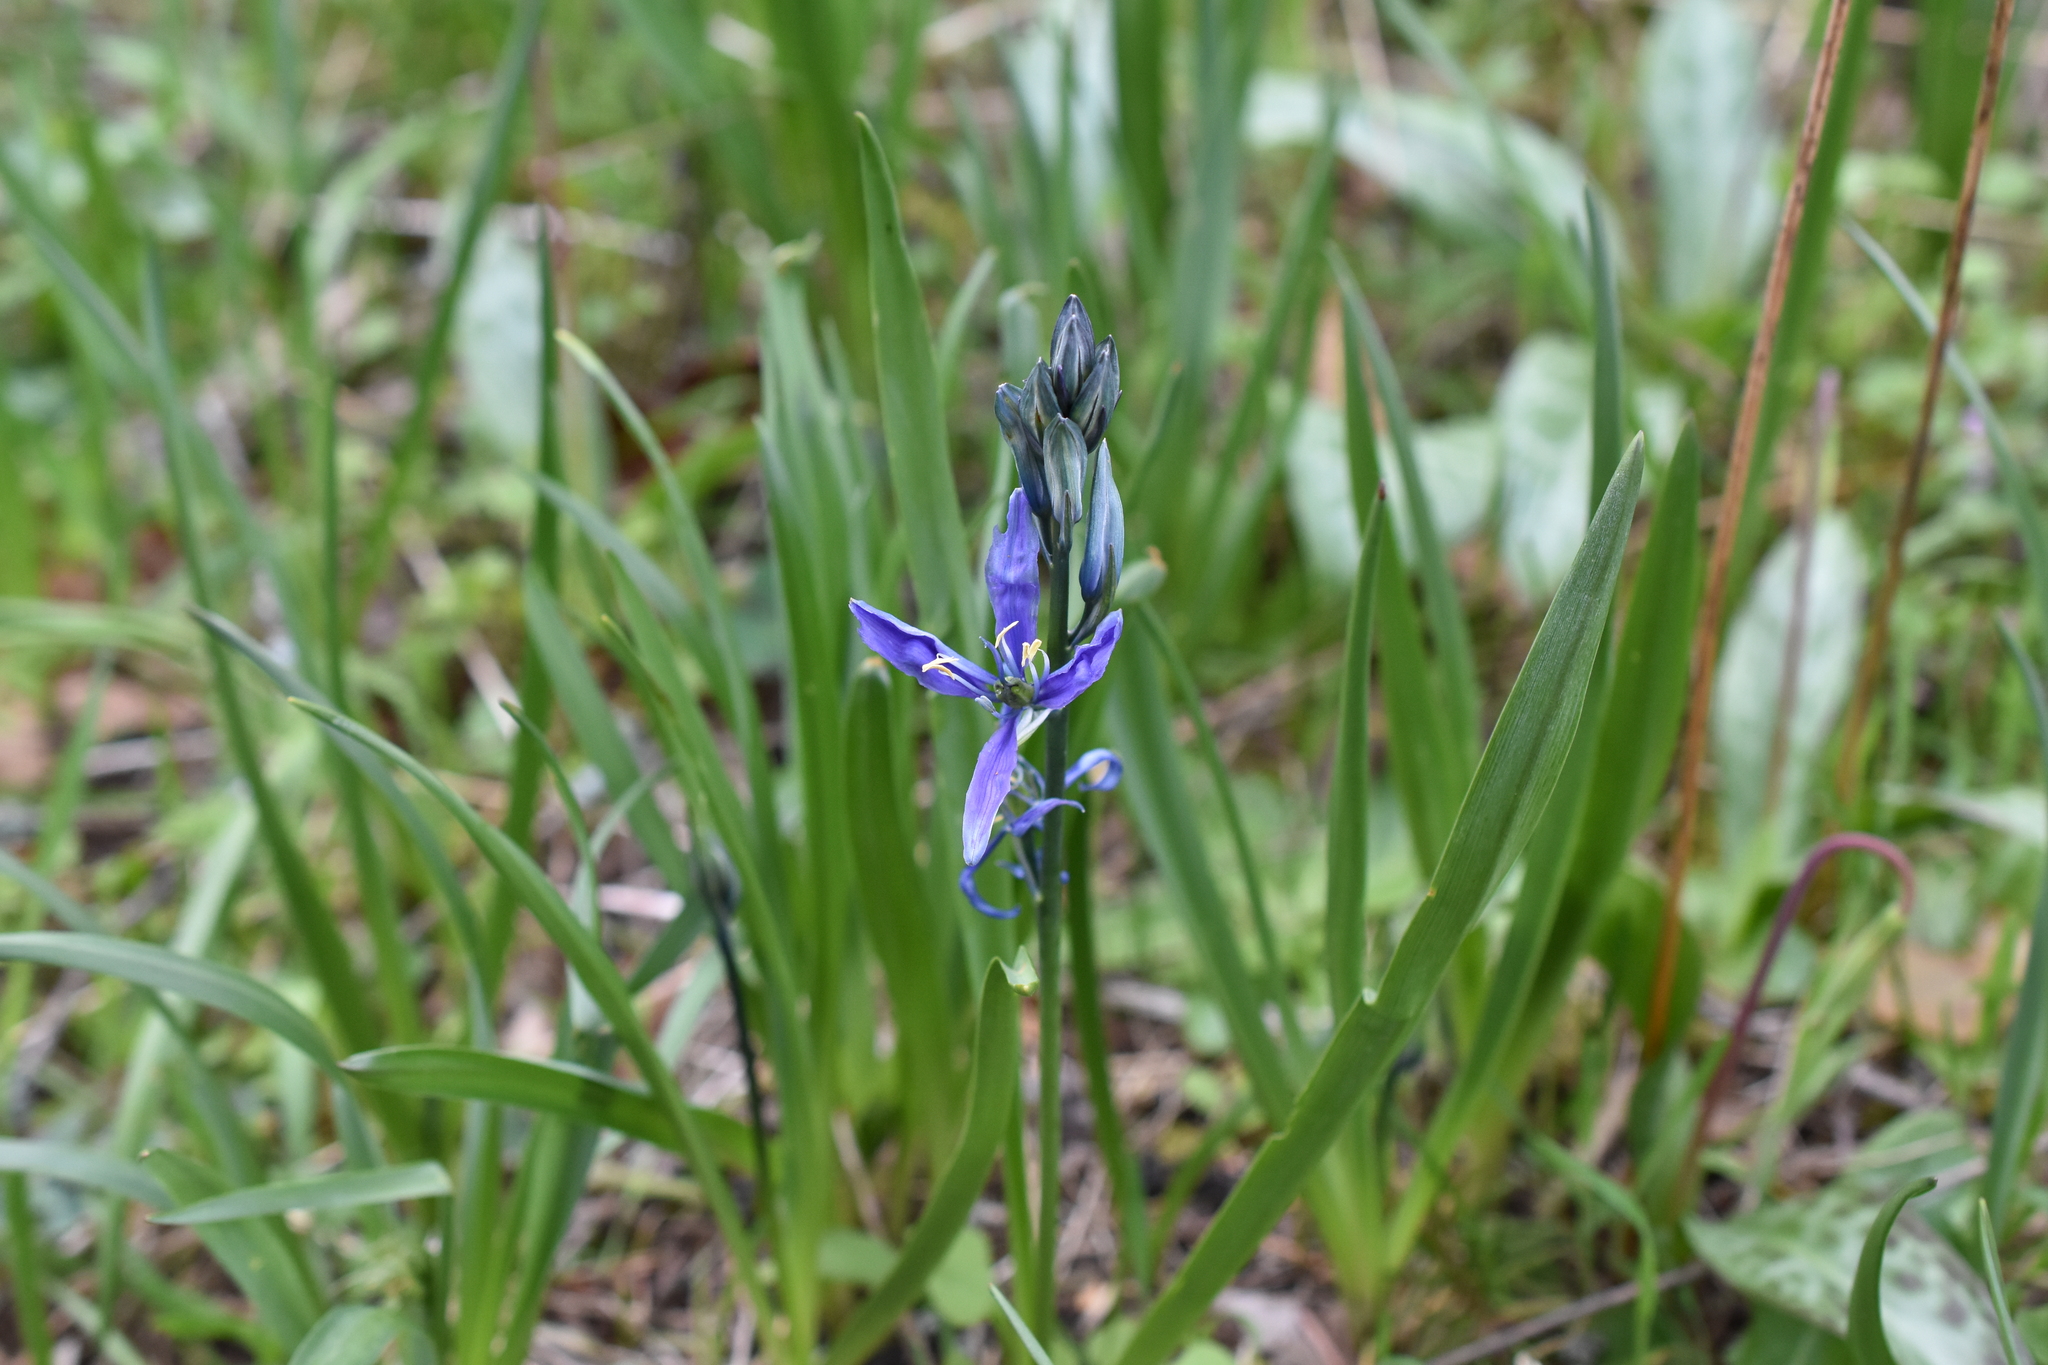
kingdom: Plantae
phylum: Tracheophyta
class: Liliopsida
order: Asparagales
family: Asparagaceae
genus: Camassia
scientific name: Camassia quamash
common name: Common camas
